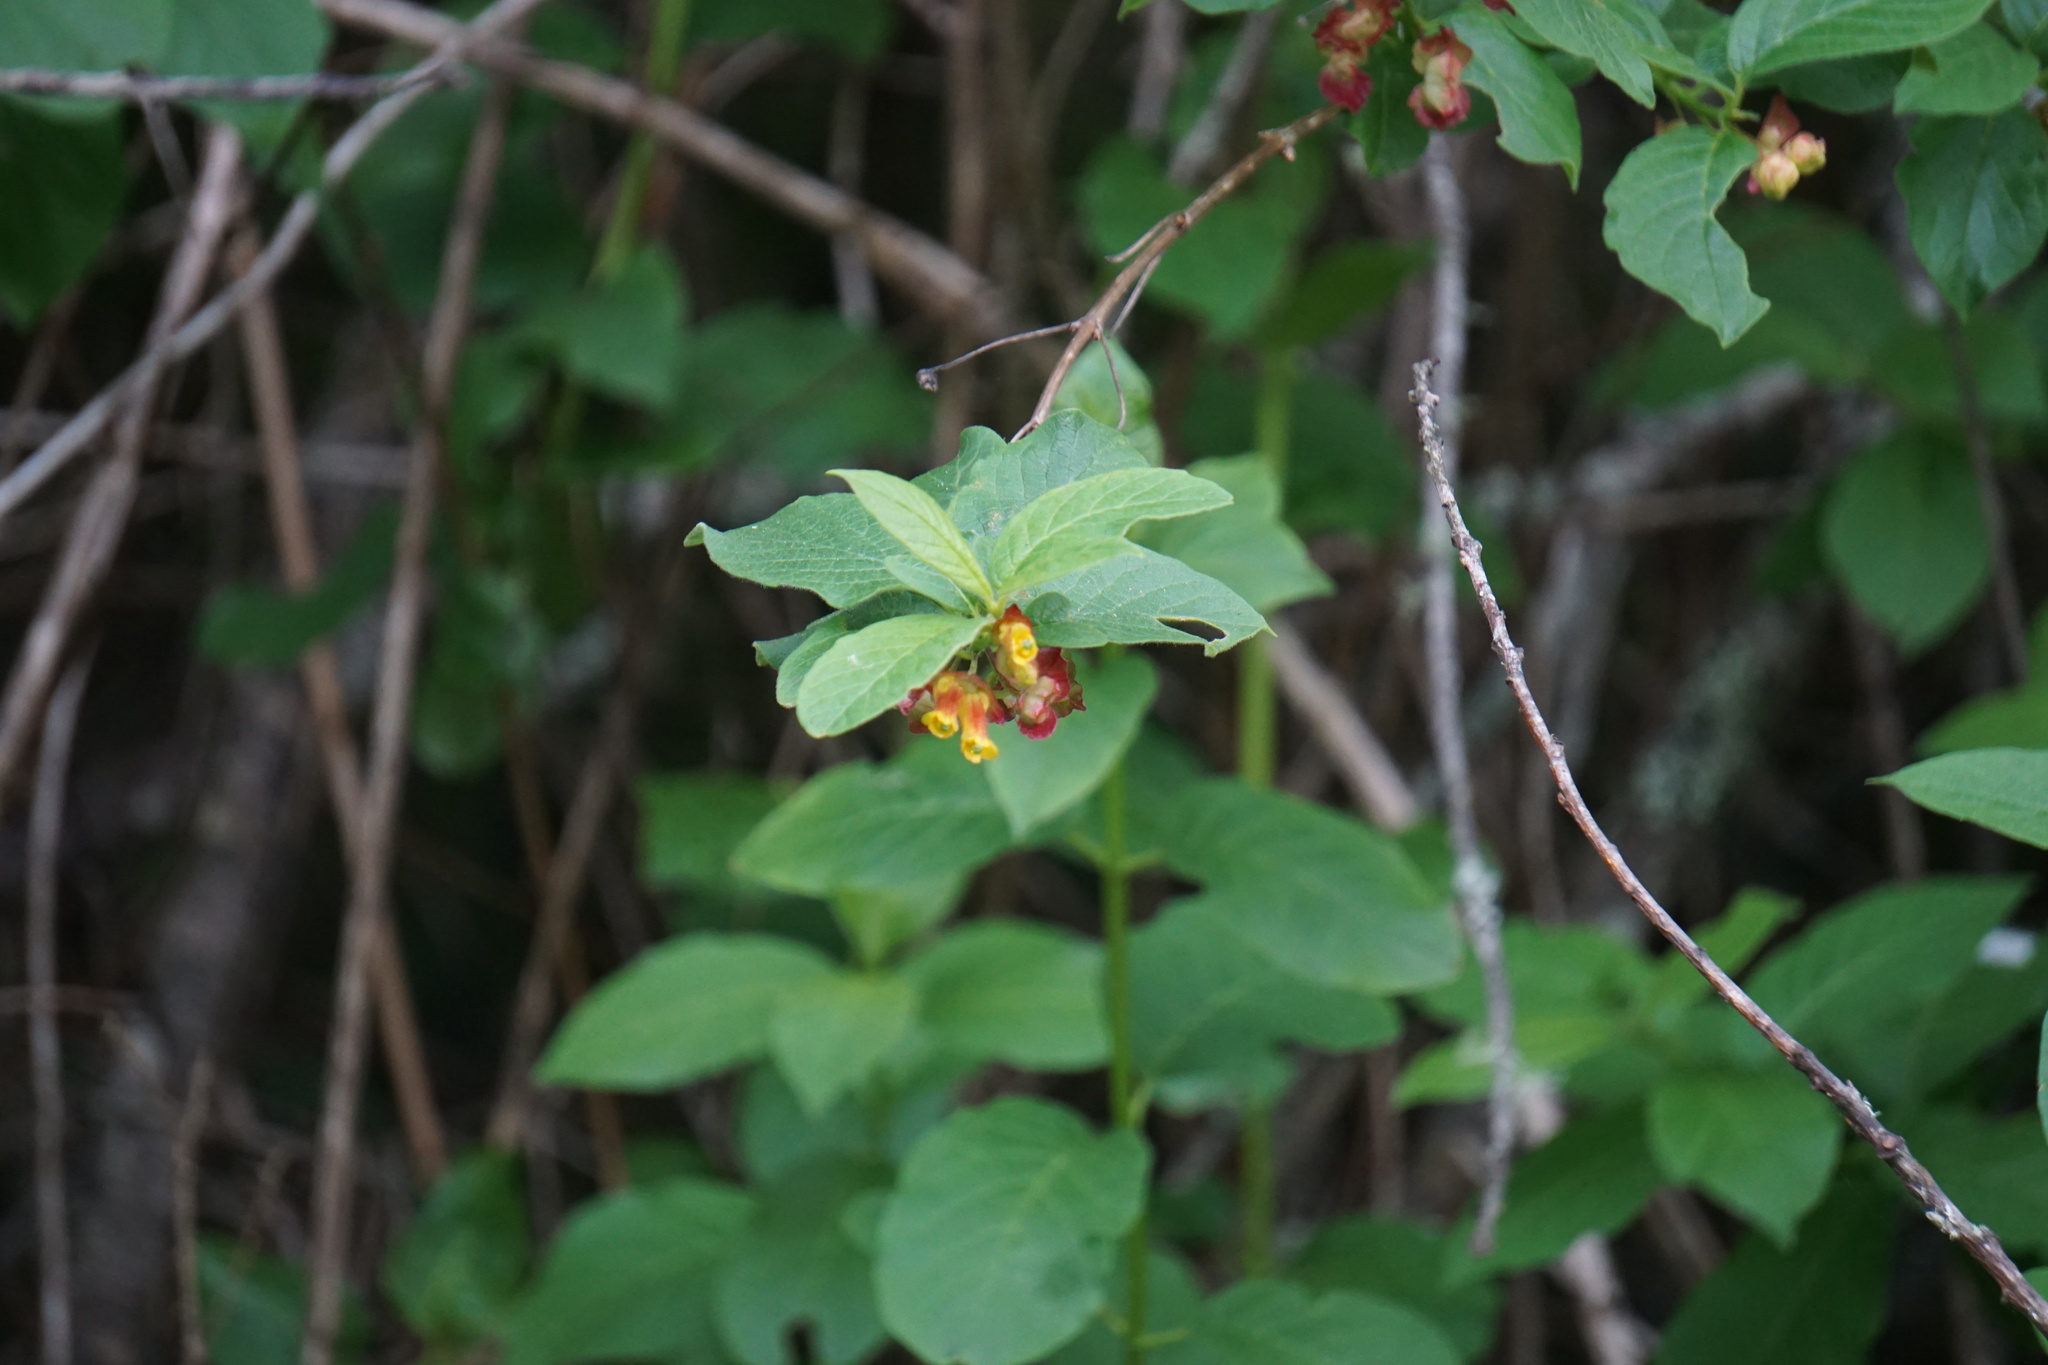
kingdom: Plantae
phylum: Tracheophyta
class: Magnoliopsida
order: Dipsacales
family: Caprifoliaceae
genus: Lonicera
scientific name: Lonicera involucrata
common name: Californian honeysuckle
